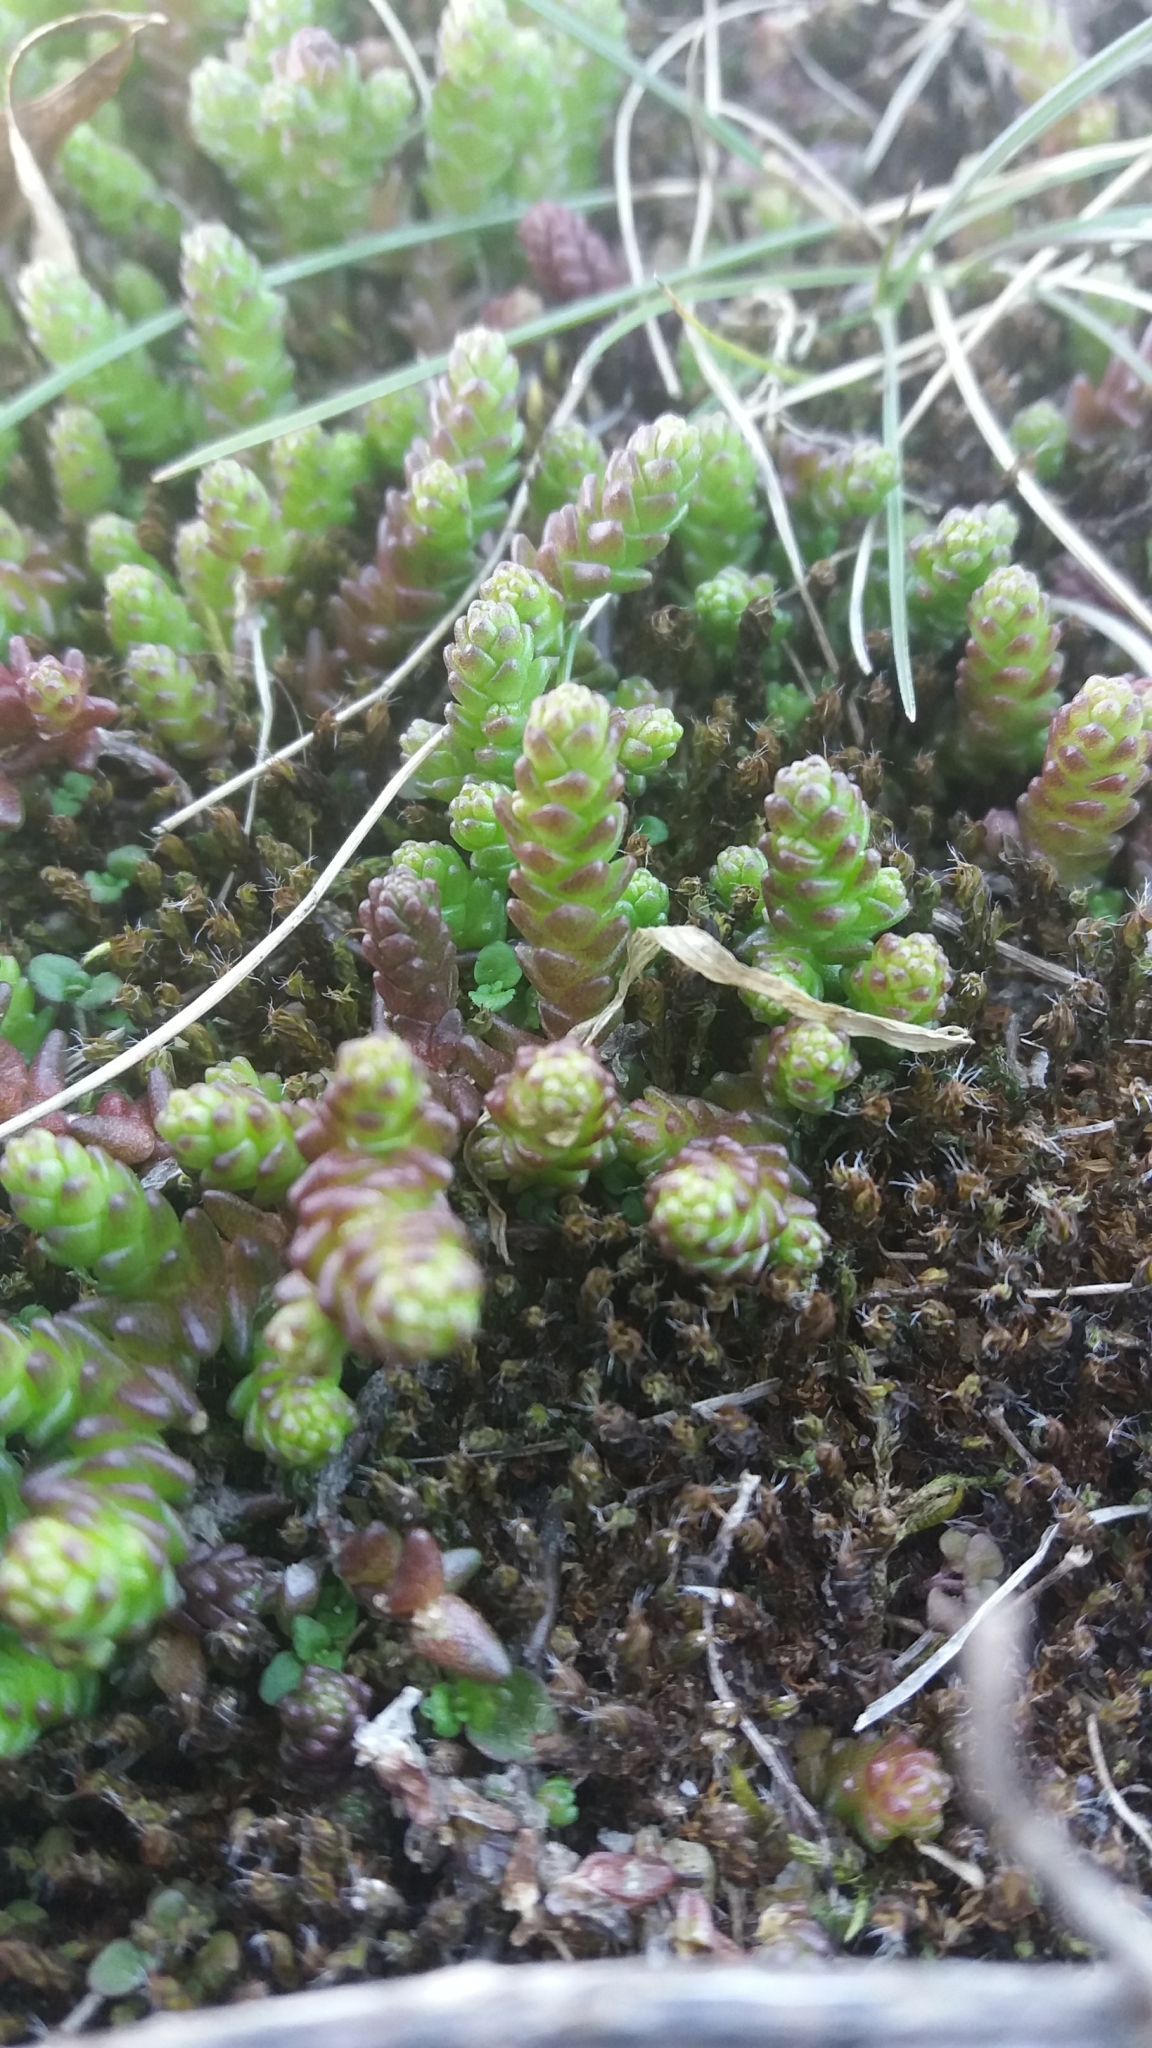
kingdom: Plantae
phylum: Tracheophyta
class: Magnoliopsida
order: Saxifragales
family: Crassulaceae
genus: Sedum
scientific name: Sedum acre
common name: Biting stonecrop
